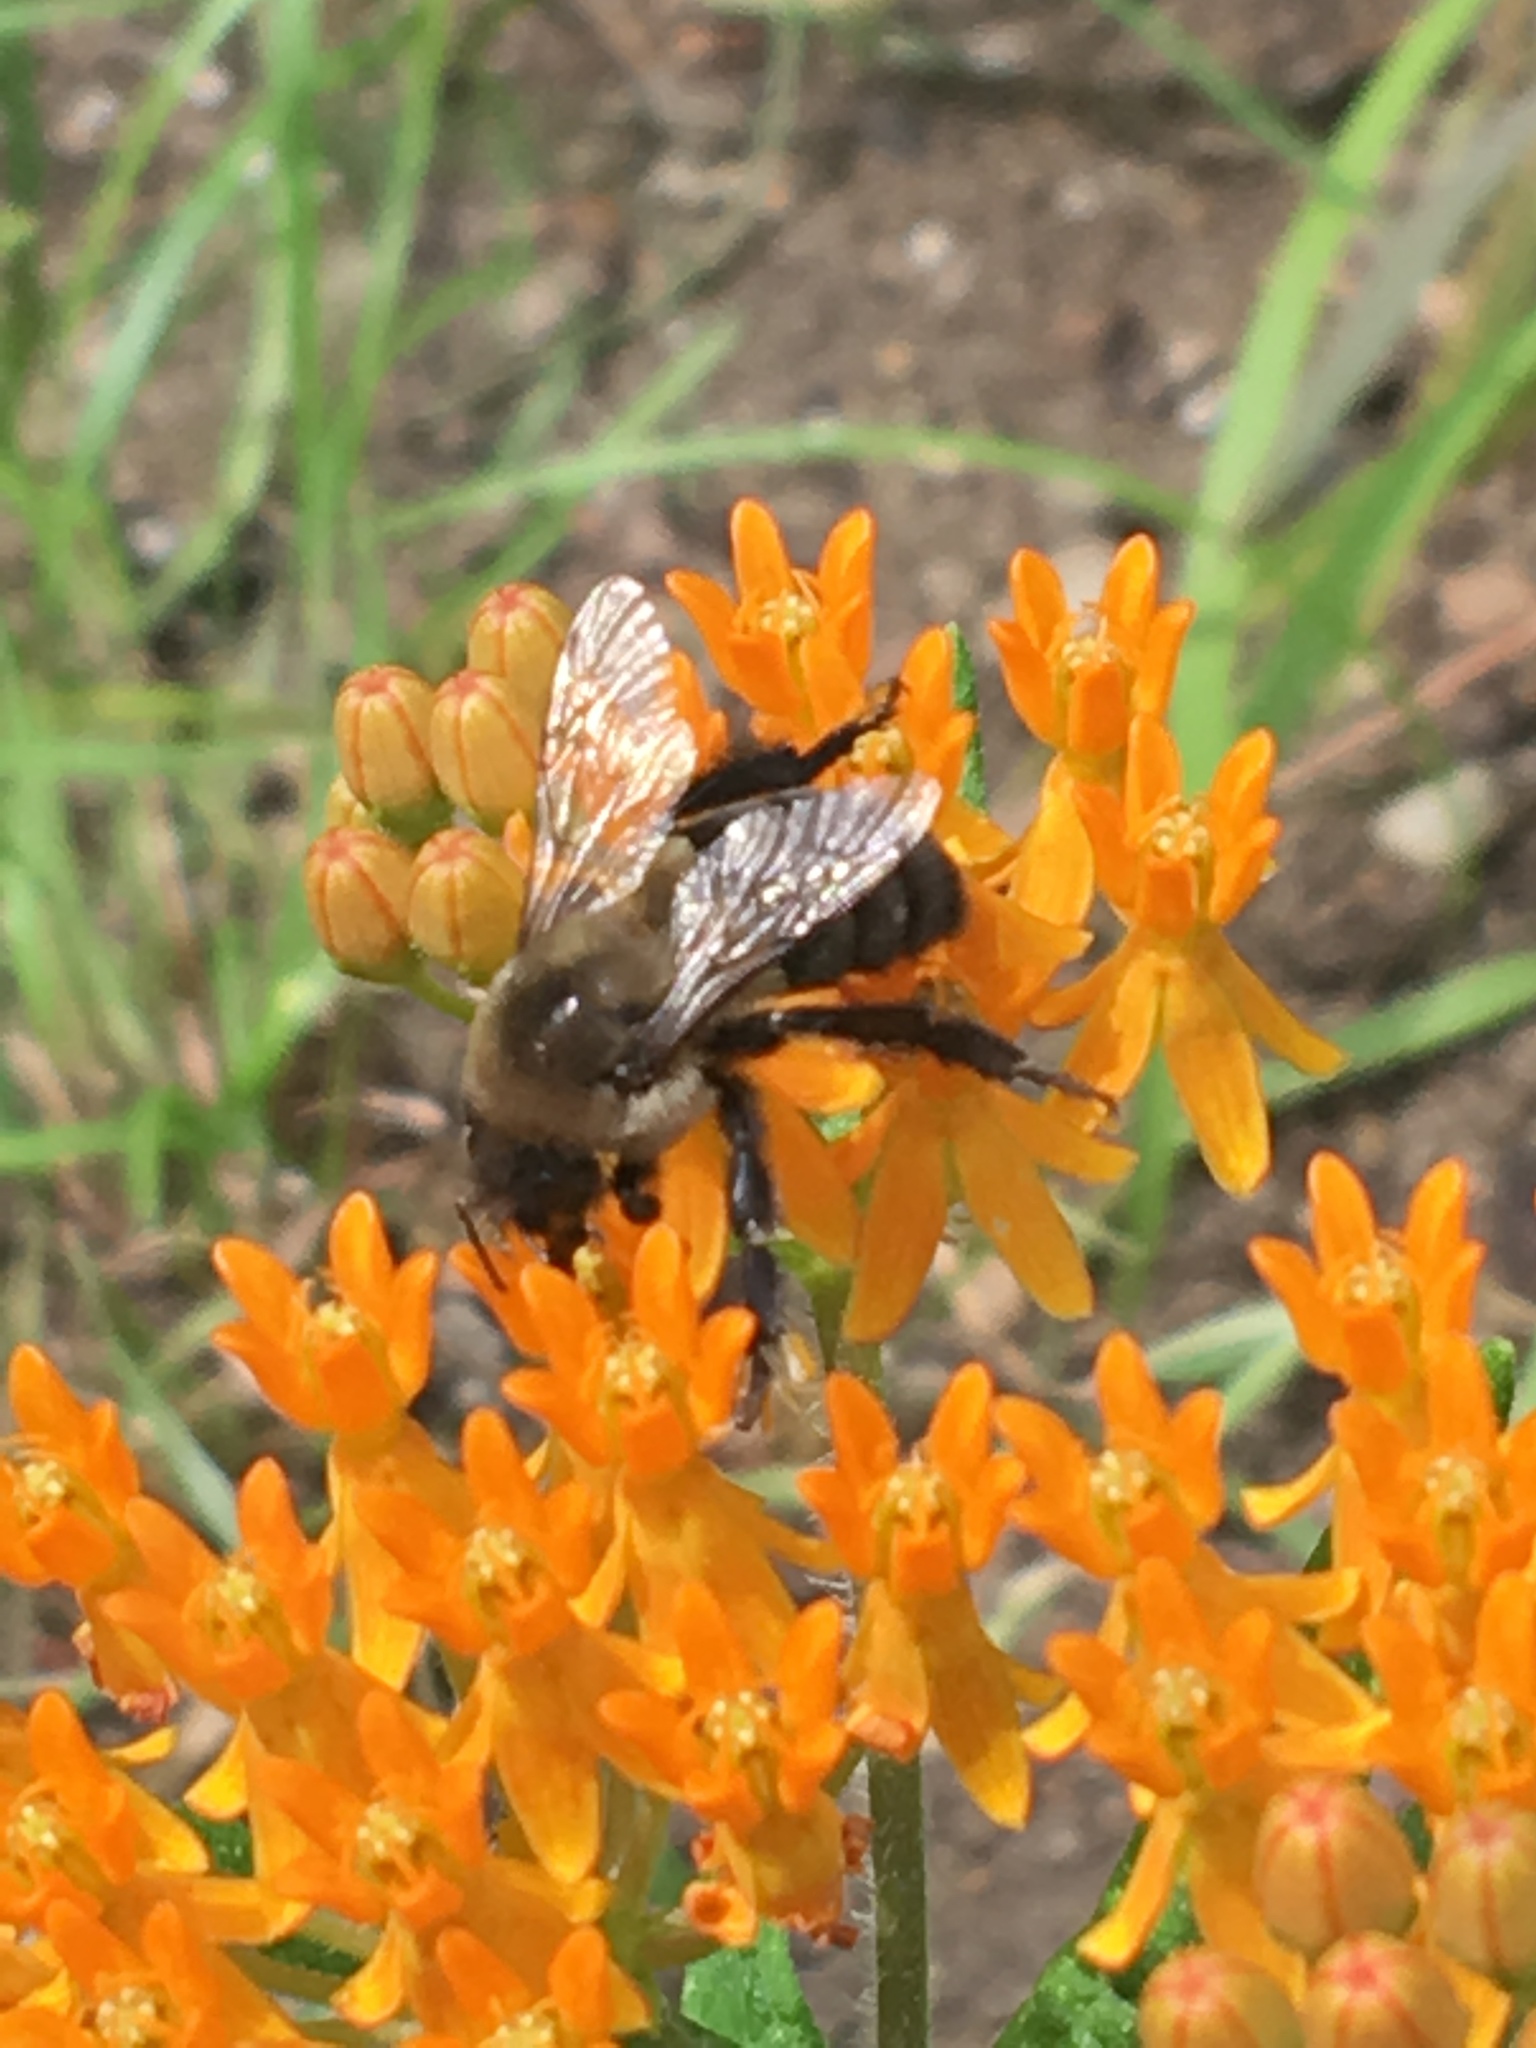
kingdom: Animalia
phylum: Arthropoda
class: Insecta
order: Hymenoptera
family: Apidae
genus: Bombus
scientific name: Bombus impatiens
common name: Common eastern bumble bee
